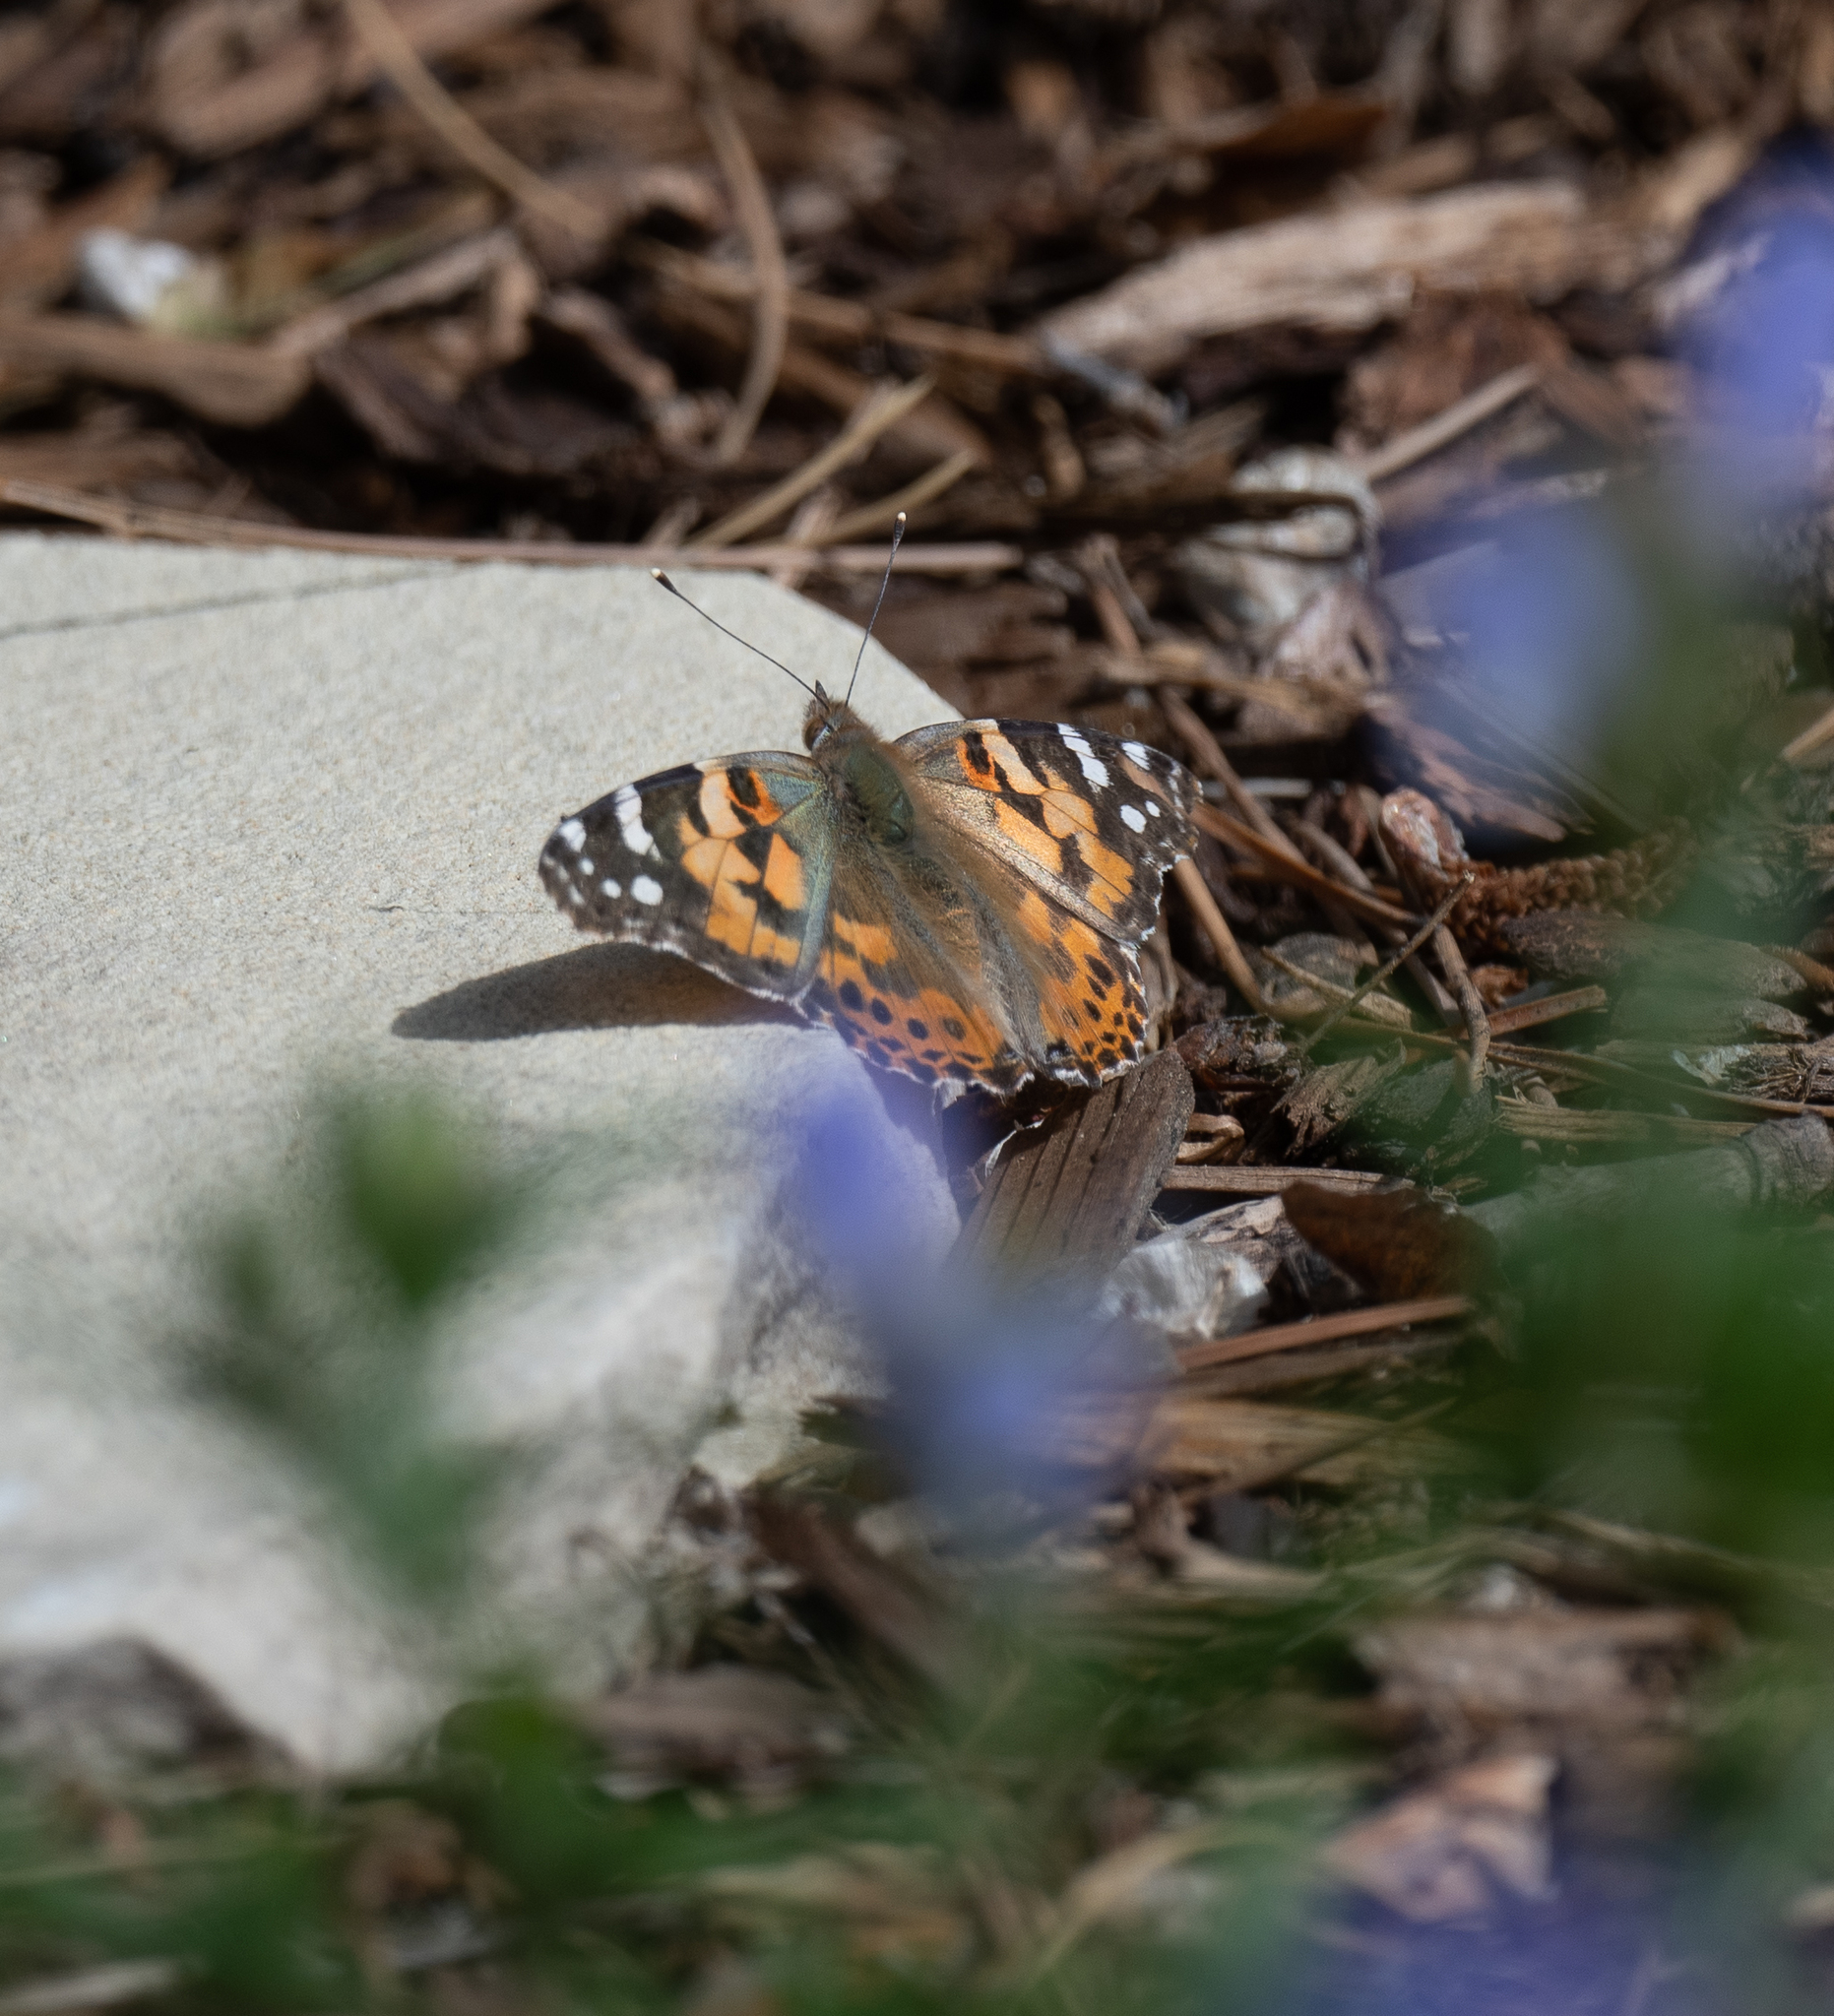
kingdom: Animalia
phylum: Arthropoda
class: Insecta
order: Lepidoptera
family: Nymphalidae
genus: Vanessa
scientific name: Vanessa cardui
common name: Painted lady
